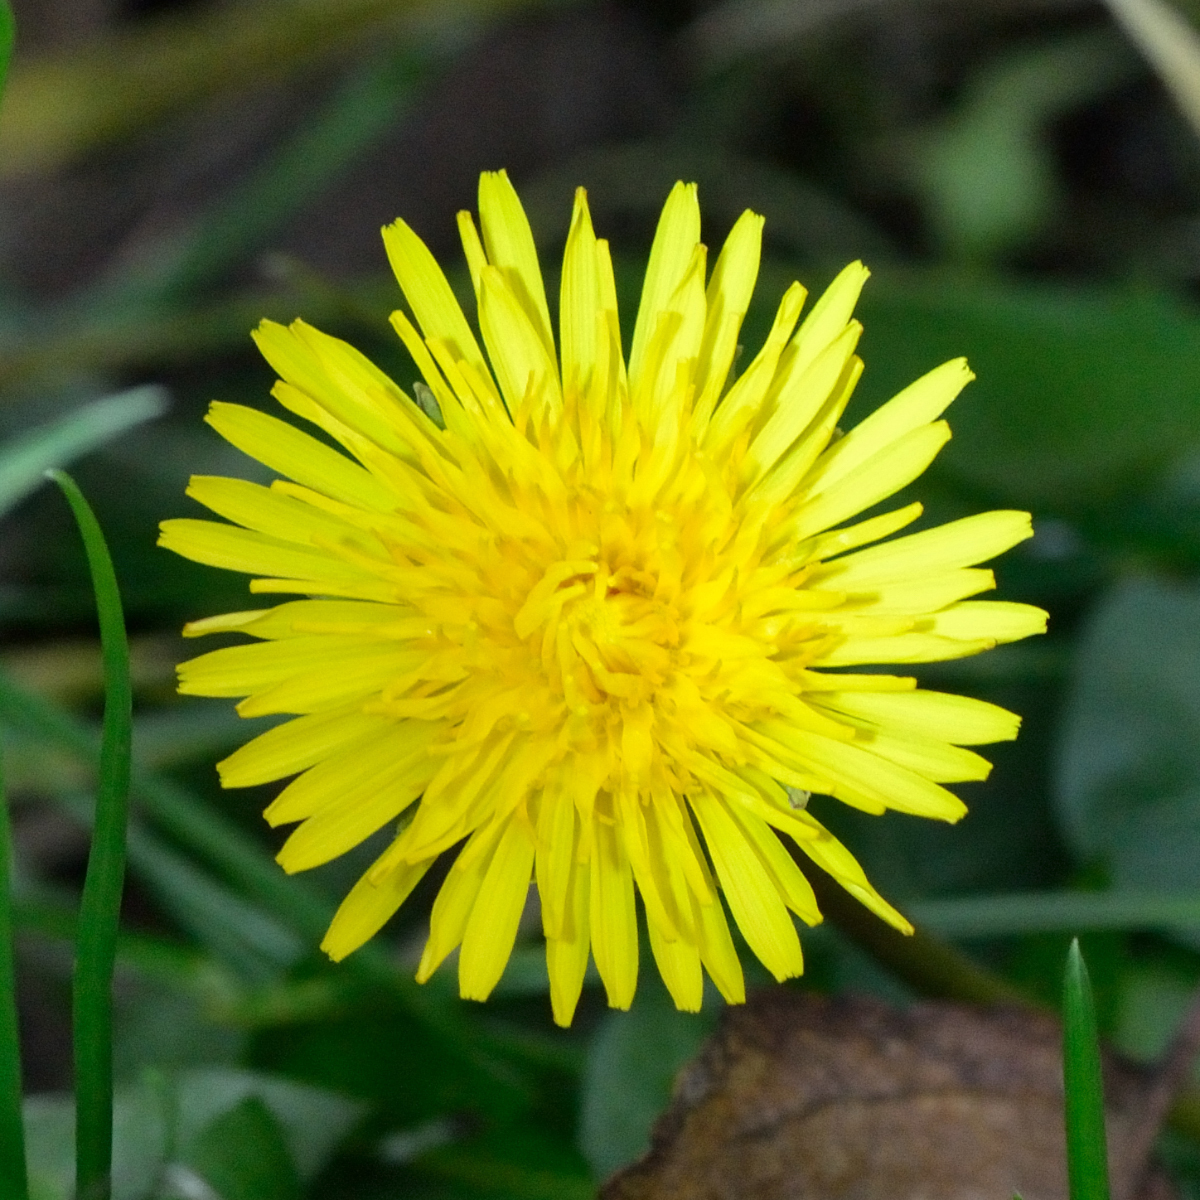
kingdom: Plantae
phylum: Tracheophyta
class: Magnoliopsida
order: Asterales
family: Asteraceae
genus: Taraxacum
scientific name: Taraxacum officinale
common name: Common dandelion
